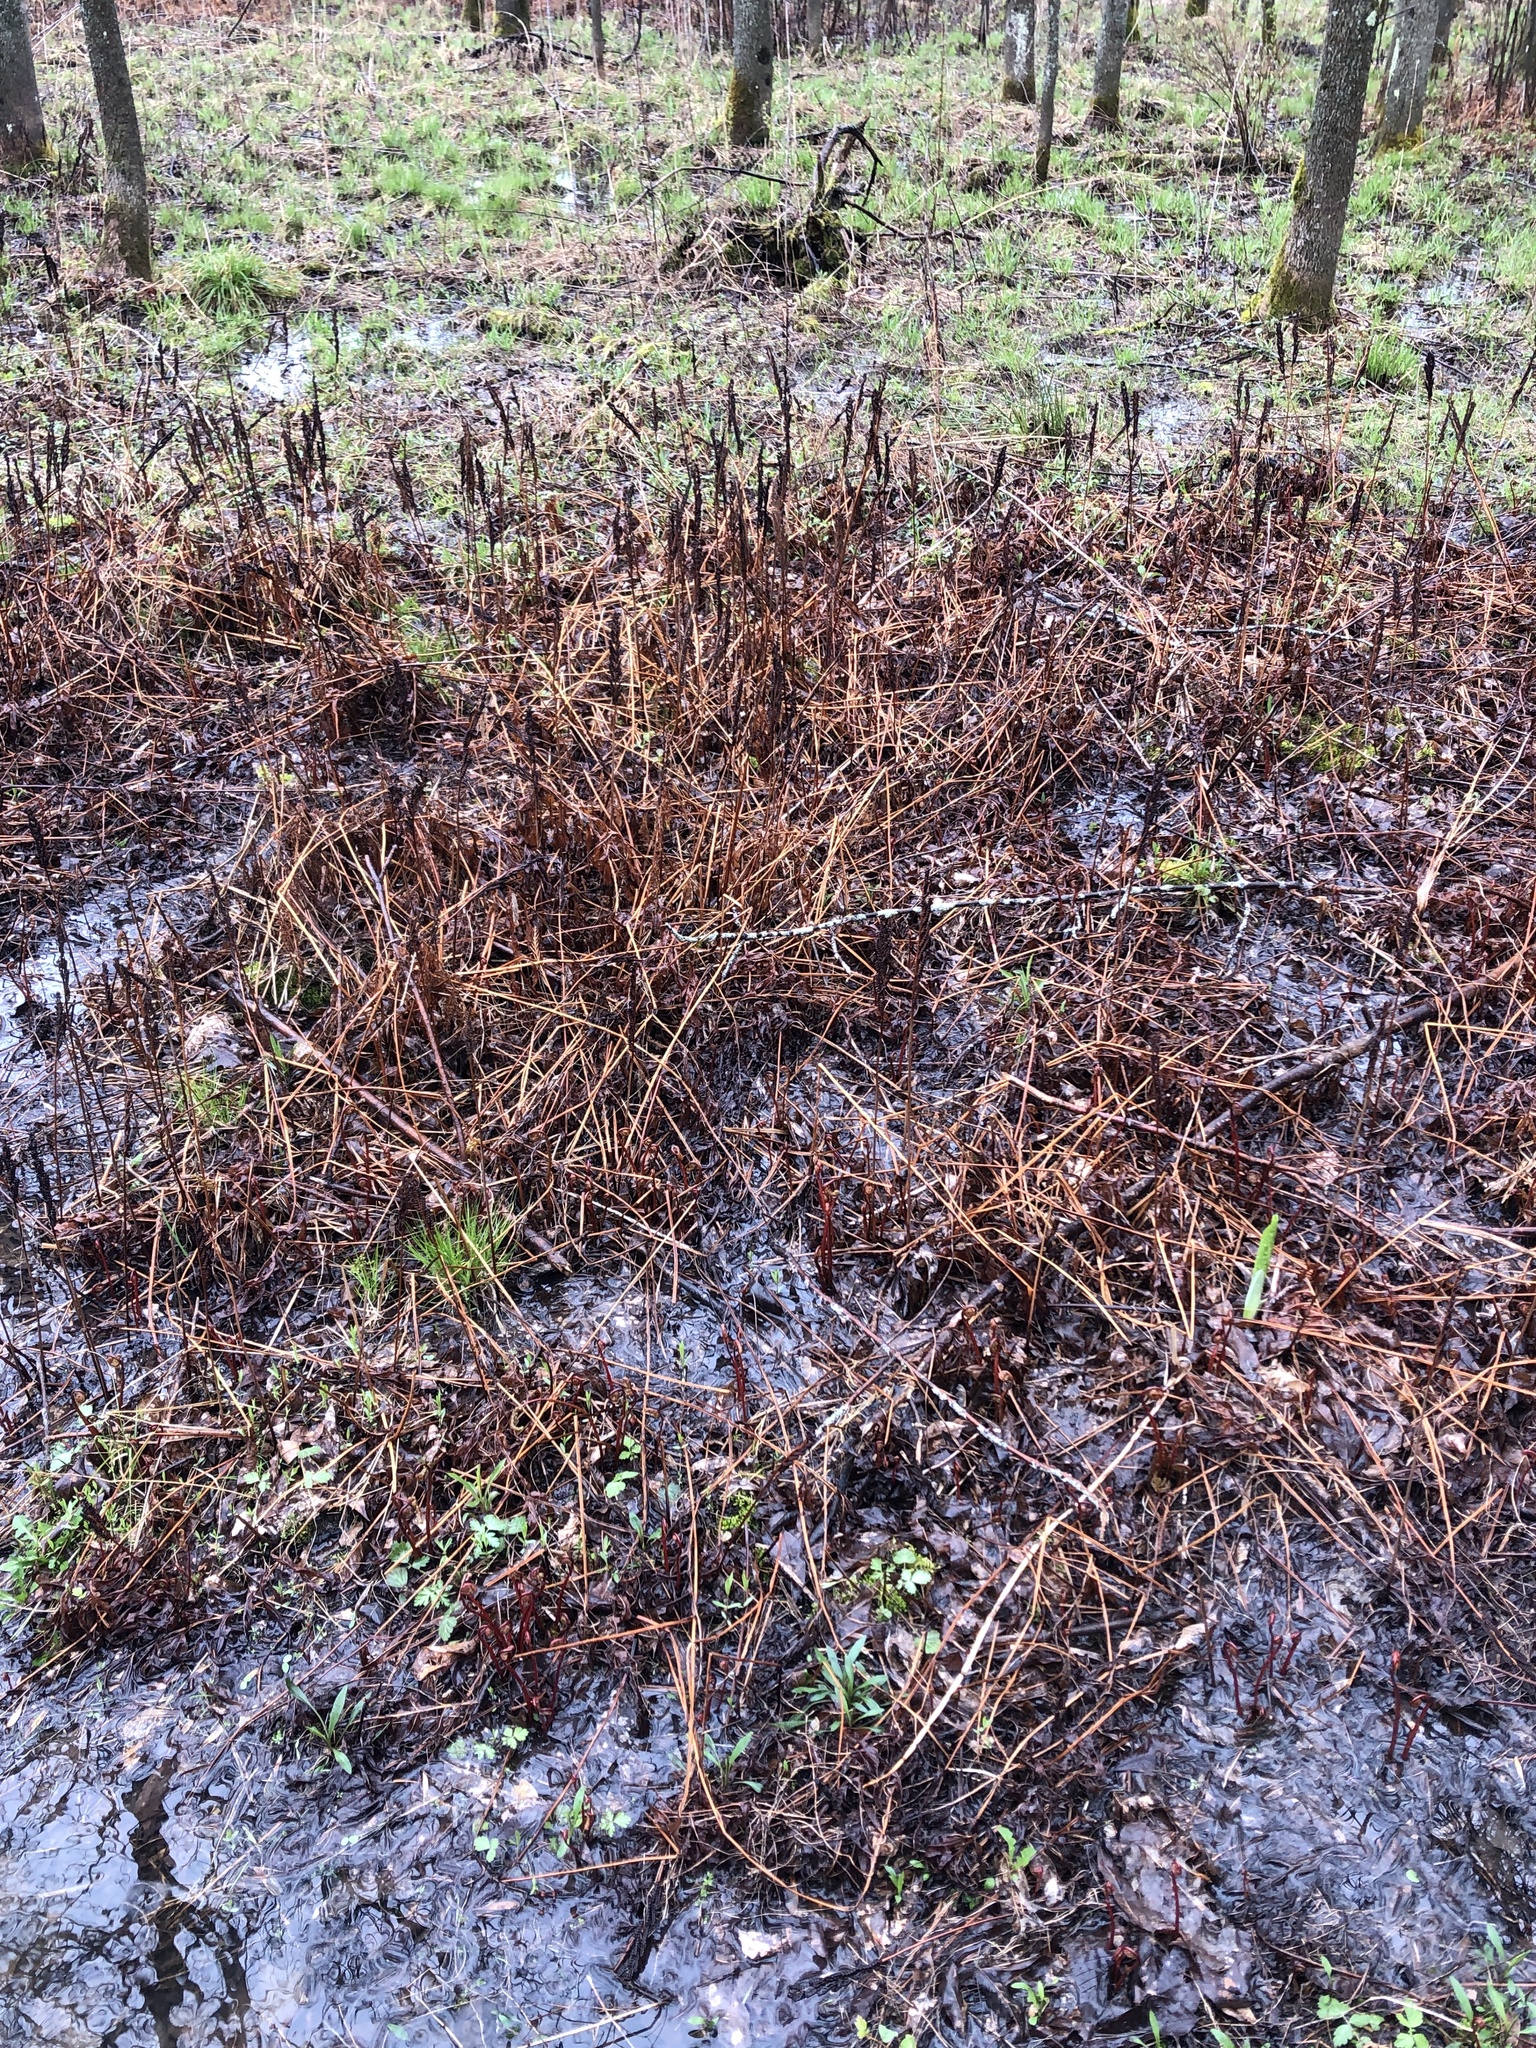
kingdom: Plantae
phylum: Tracheophyta
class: Polypodiopsida
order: Polypodiales
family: Onocleaceae
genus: Onoclea
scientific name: Onoclea sensibilis
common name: Sensitive fern
